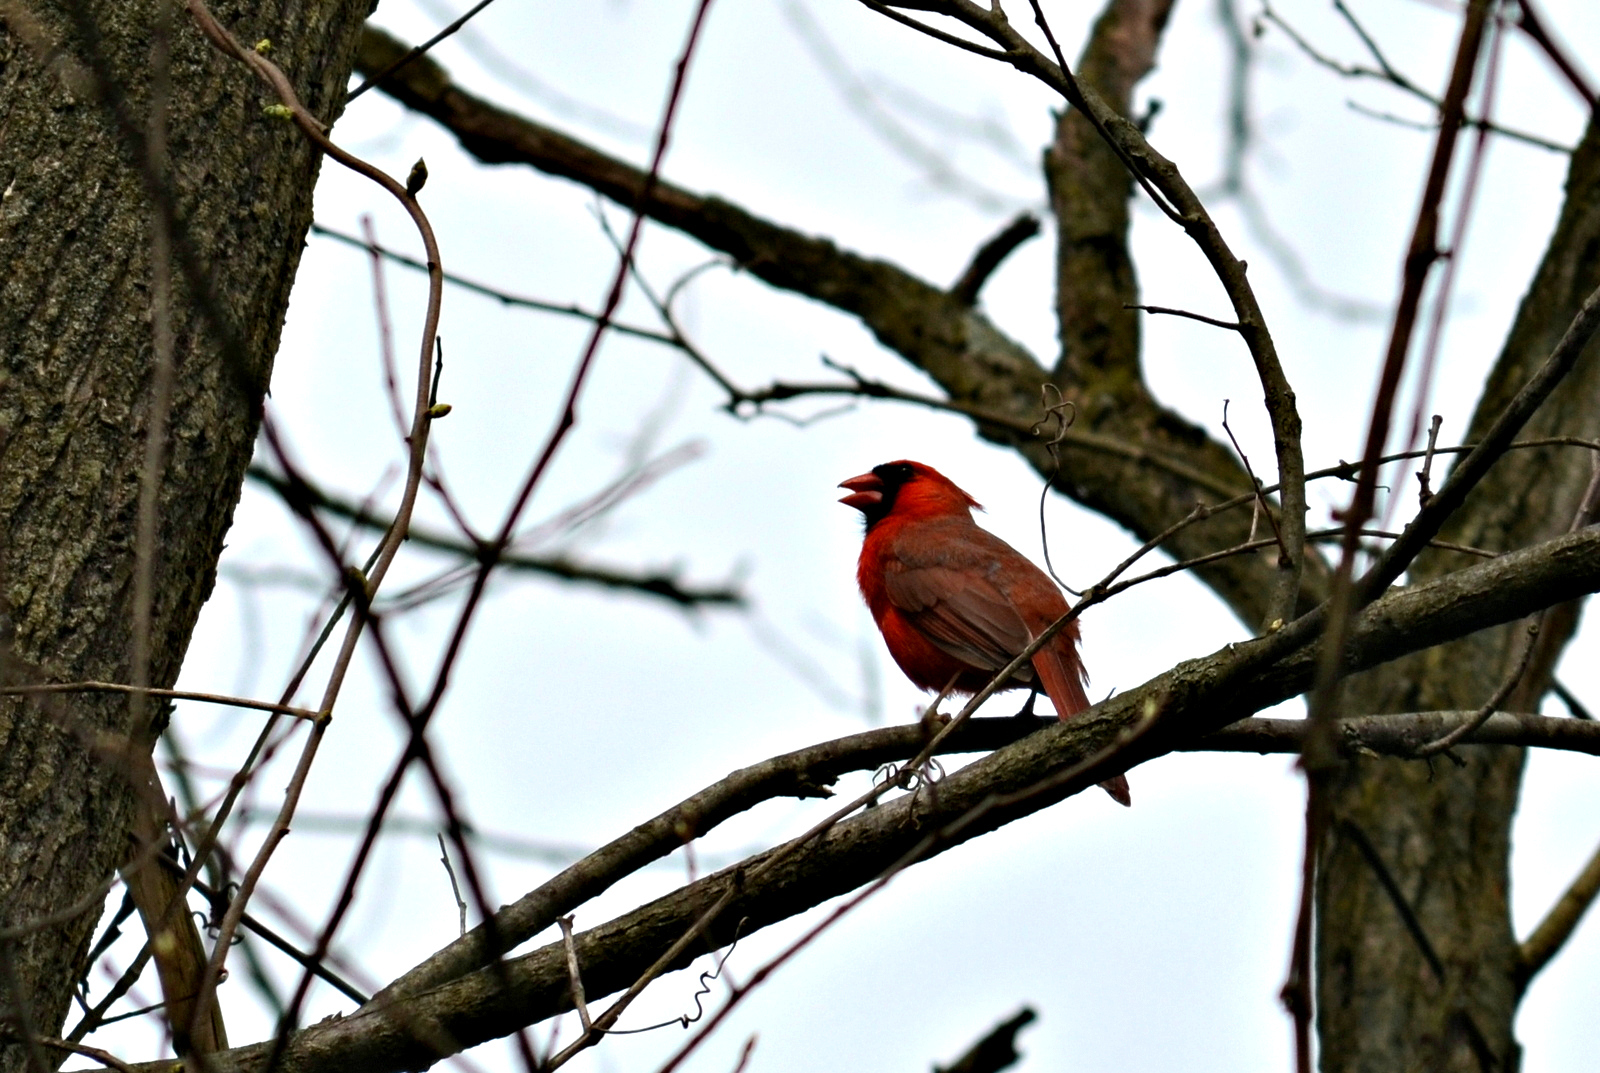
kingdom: Animalia
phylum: Chordata
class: Aves
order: Passeriformes
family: Cardinalidae
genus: Cardinalis
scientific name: Cardinalis cardinalis
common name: Northern cardinal
